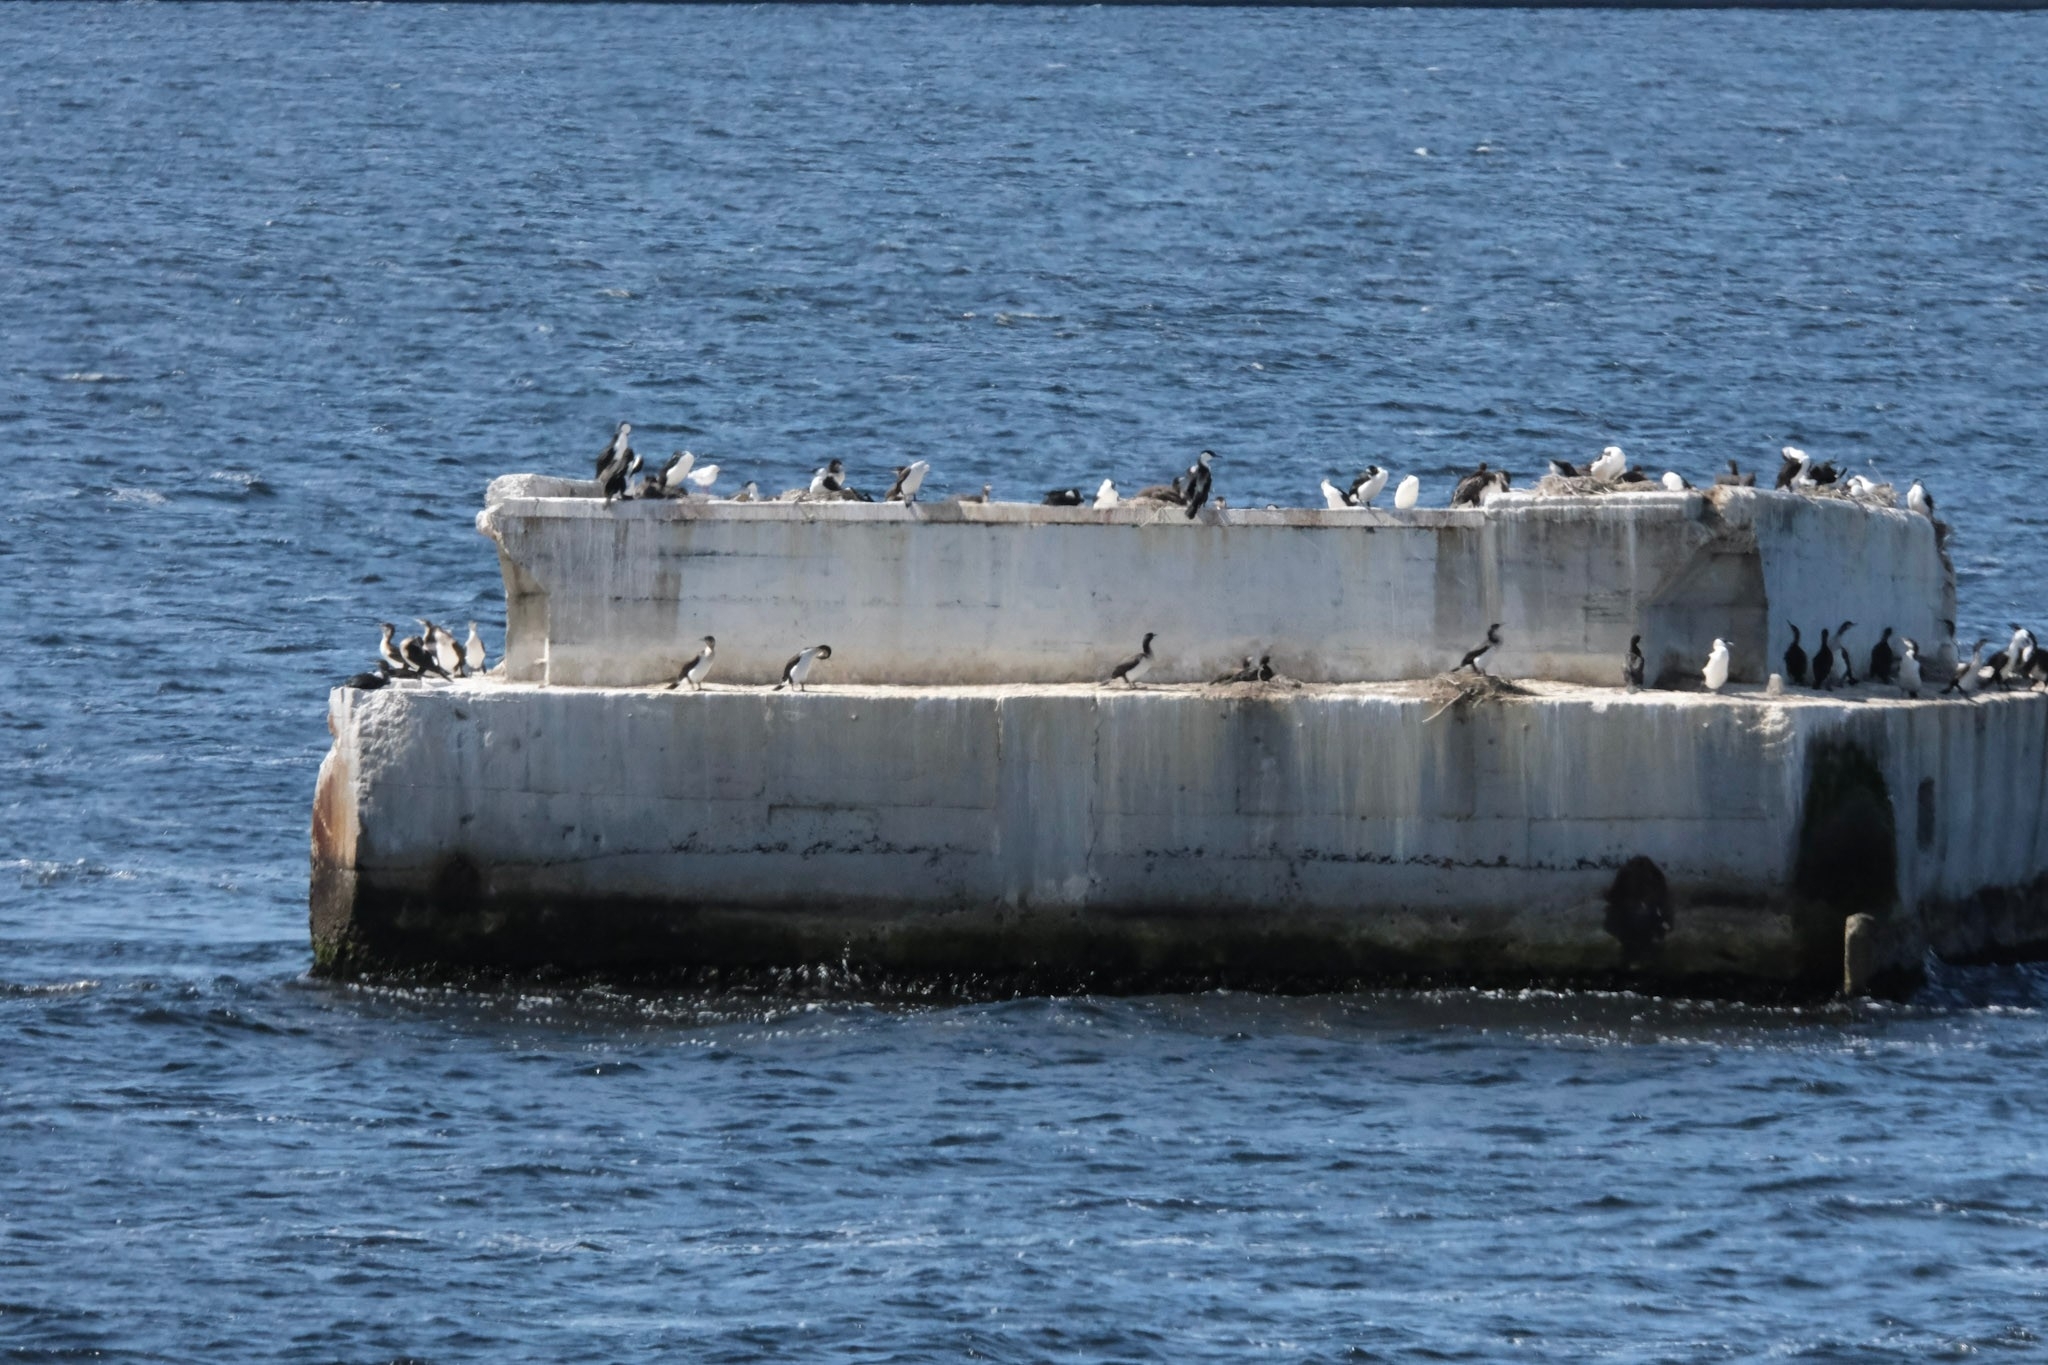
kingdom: Animalia
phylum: Chordata
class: Aves
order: Suliformes
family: Phalacrocoracidae
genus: Phalacrocorax
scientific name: Phalacrocorax fuscescens
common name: Black-faced cormorant
